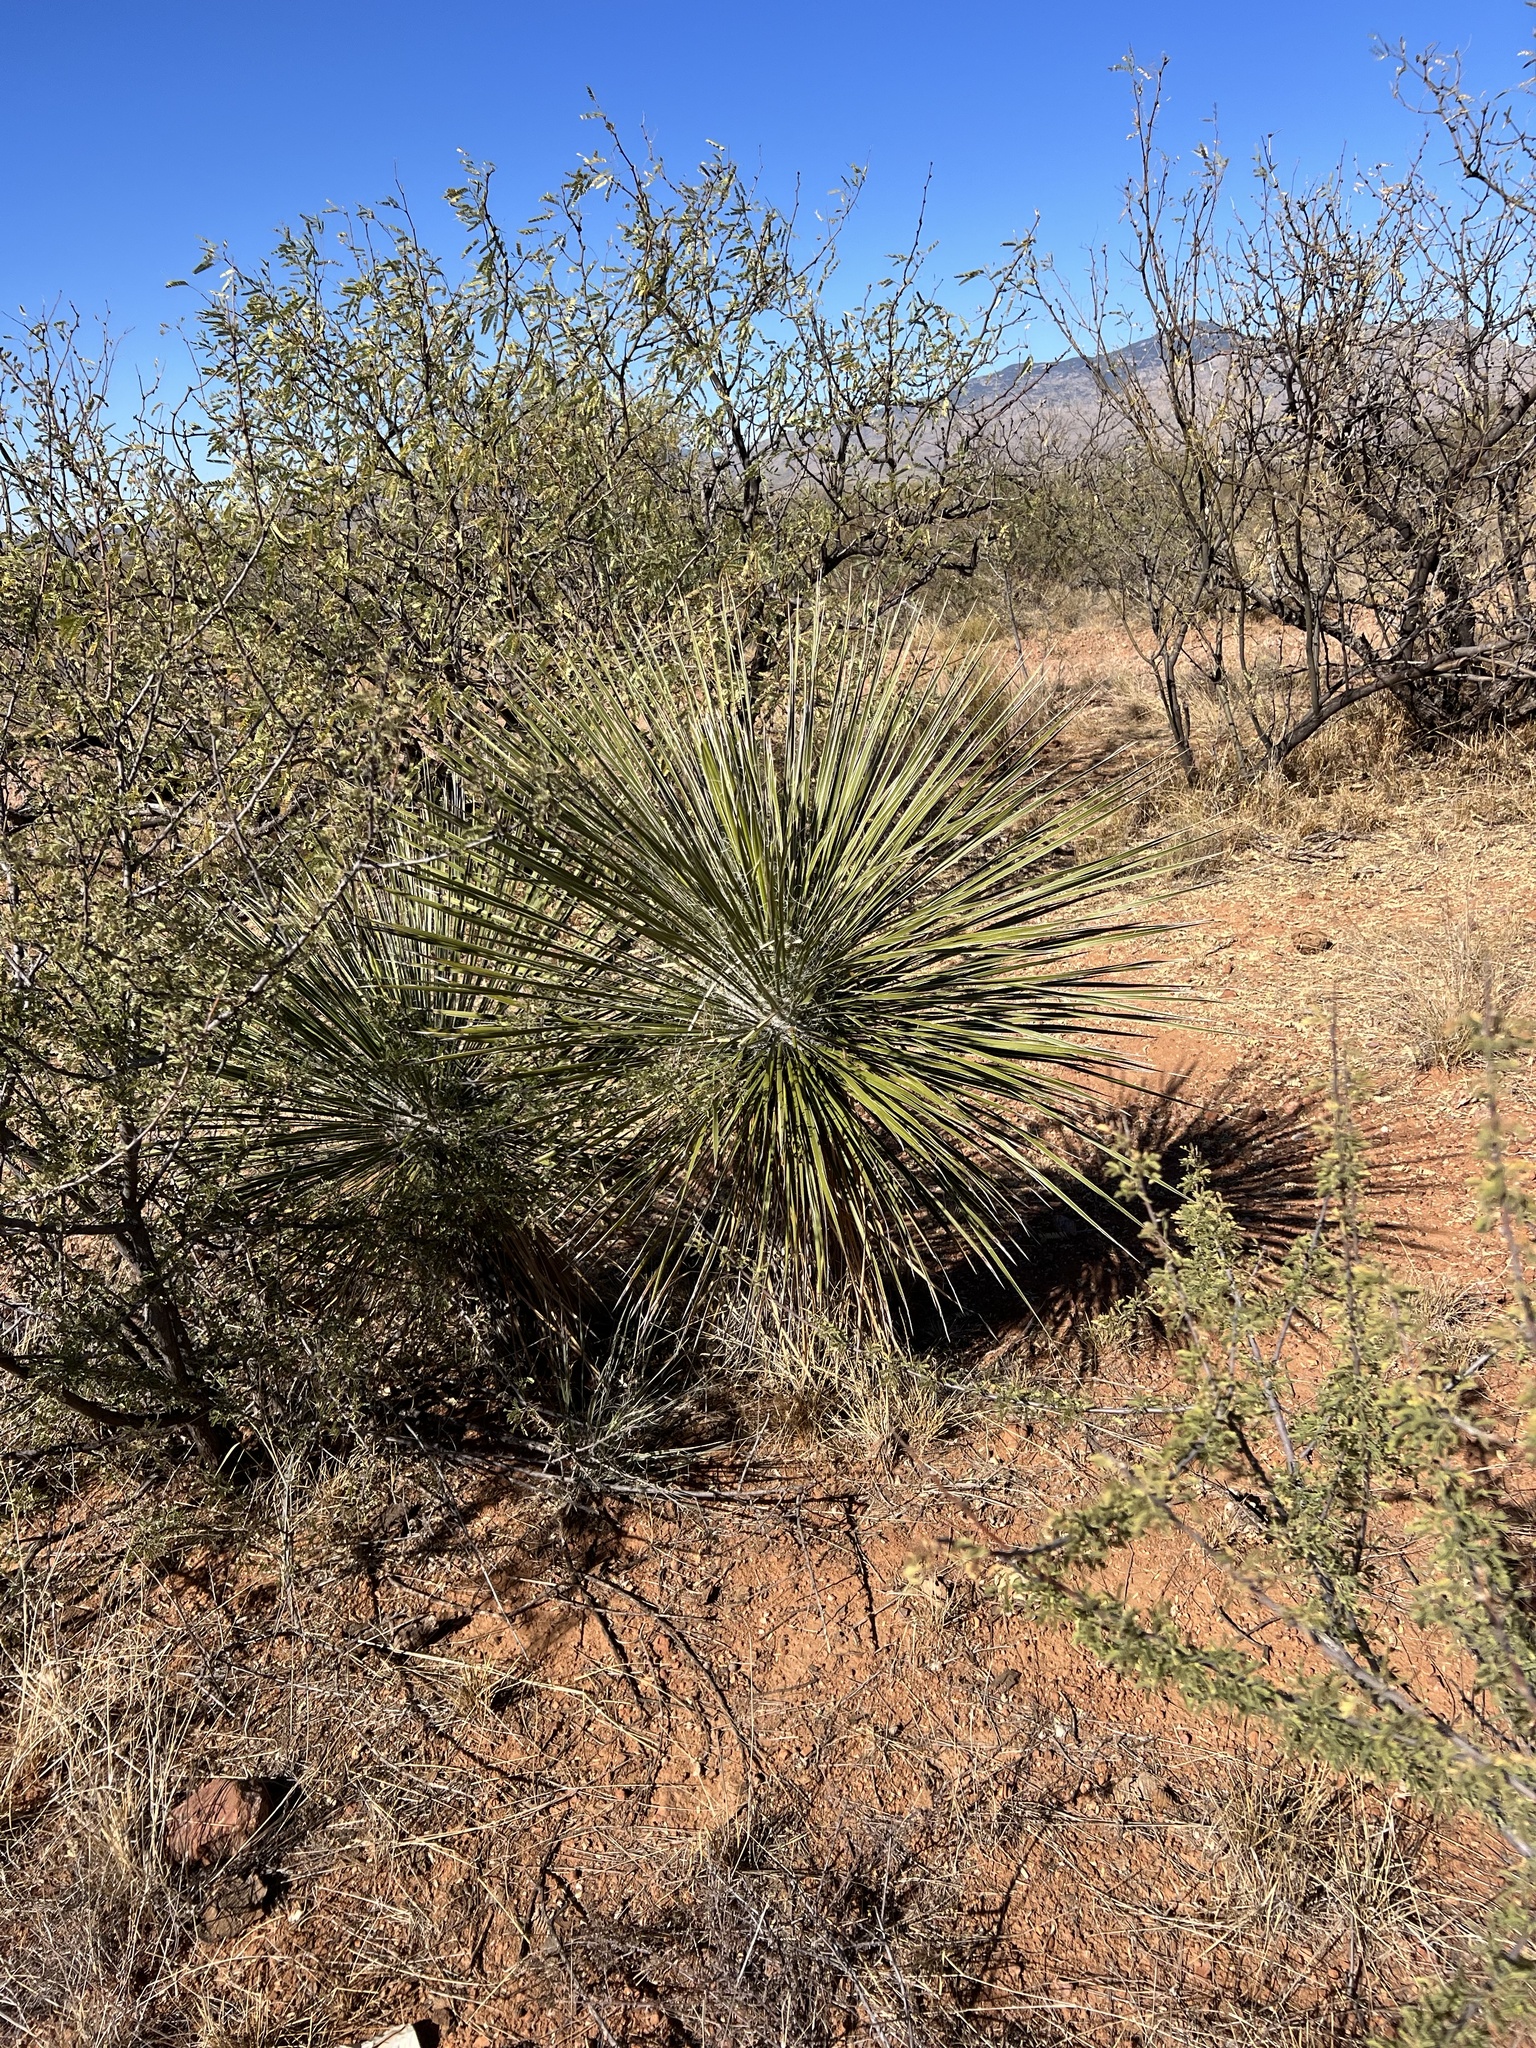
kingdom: Plantae
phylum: Tracheophyta
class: Liliopsida
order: Asparagales
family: Asparagaceae
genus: Yucca
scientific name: Yucca elata
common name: Palmella
